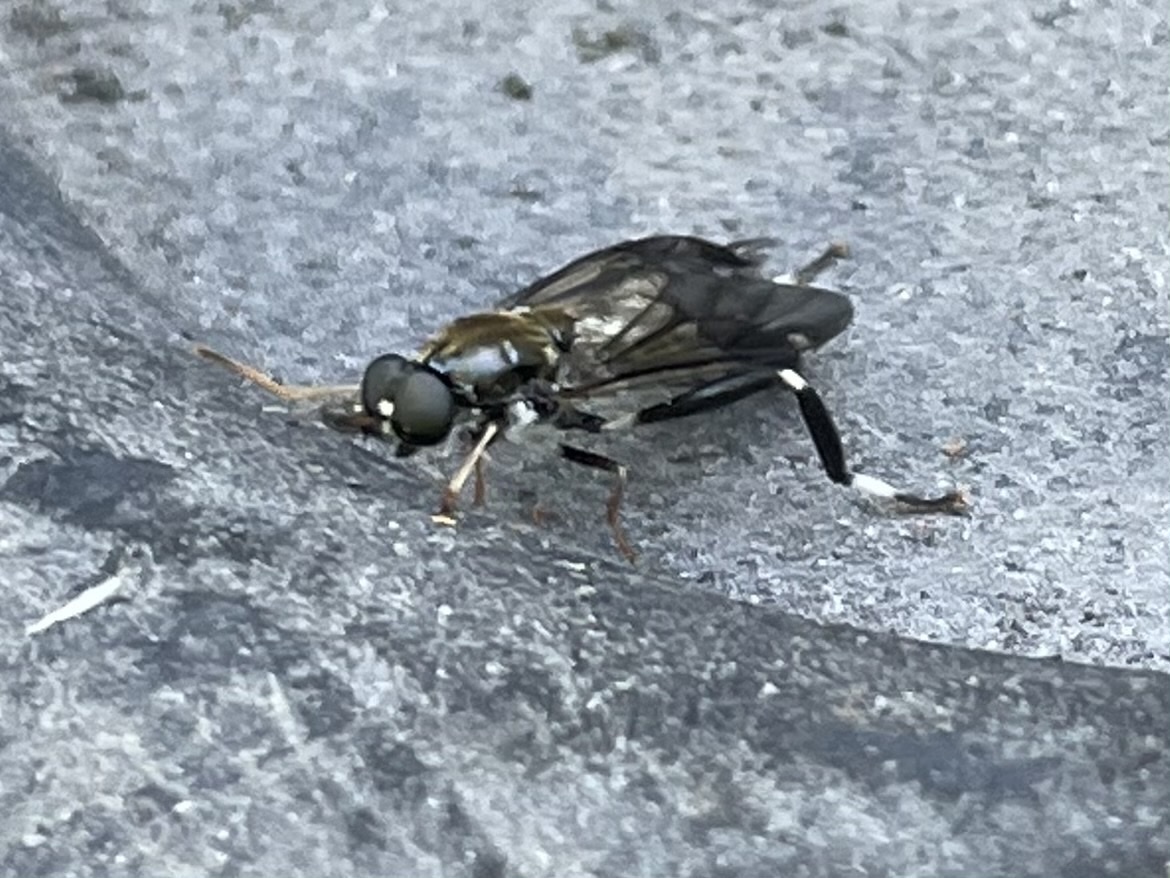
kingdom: Animalia
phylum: Arthropoda
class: Insecta
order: Diptera
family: Stratiomyidae
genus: Exaireta
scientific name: Exaireta spinigera
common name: Blue soldier fly
